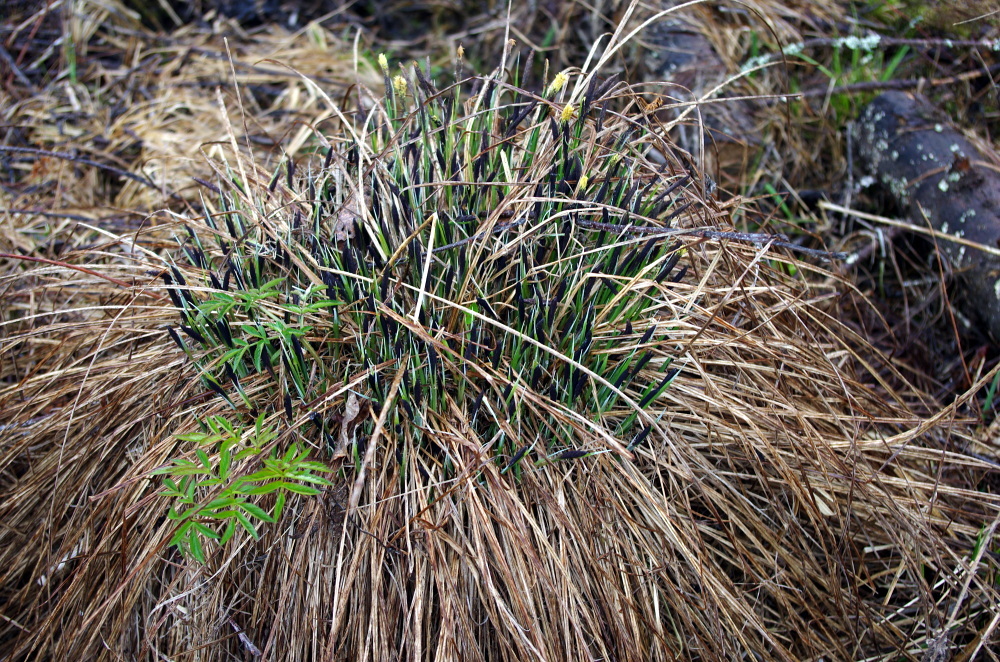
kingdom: Plantae
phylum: Tracheophyta
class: Liliopsida
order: Poales
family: Cyperaceae
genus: Carex
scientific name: Carex cespitosa
